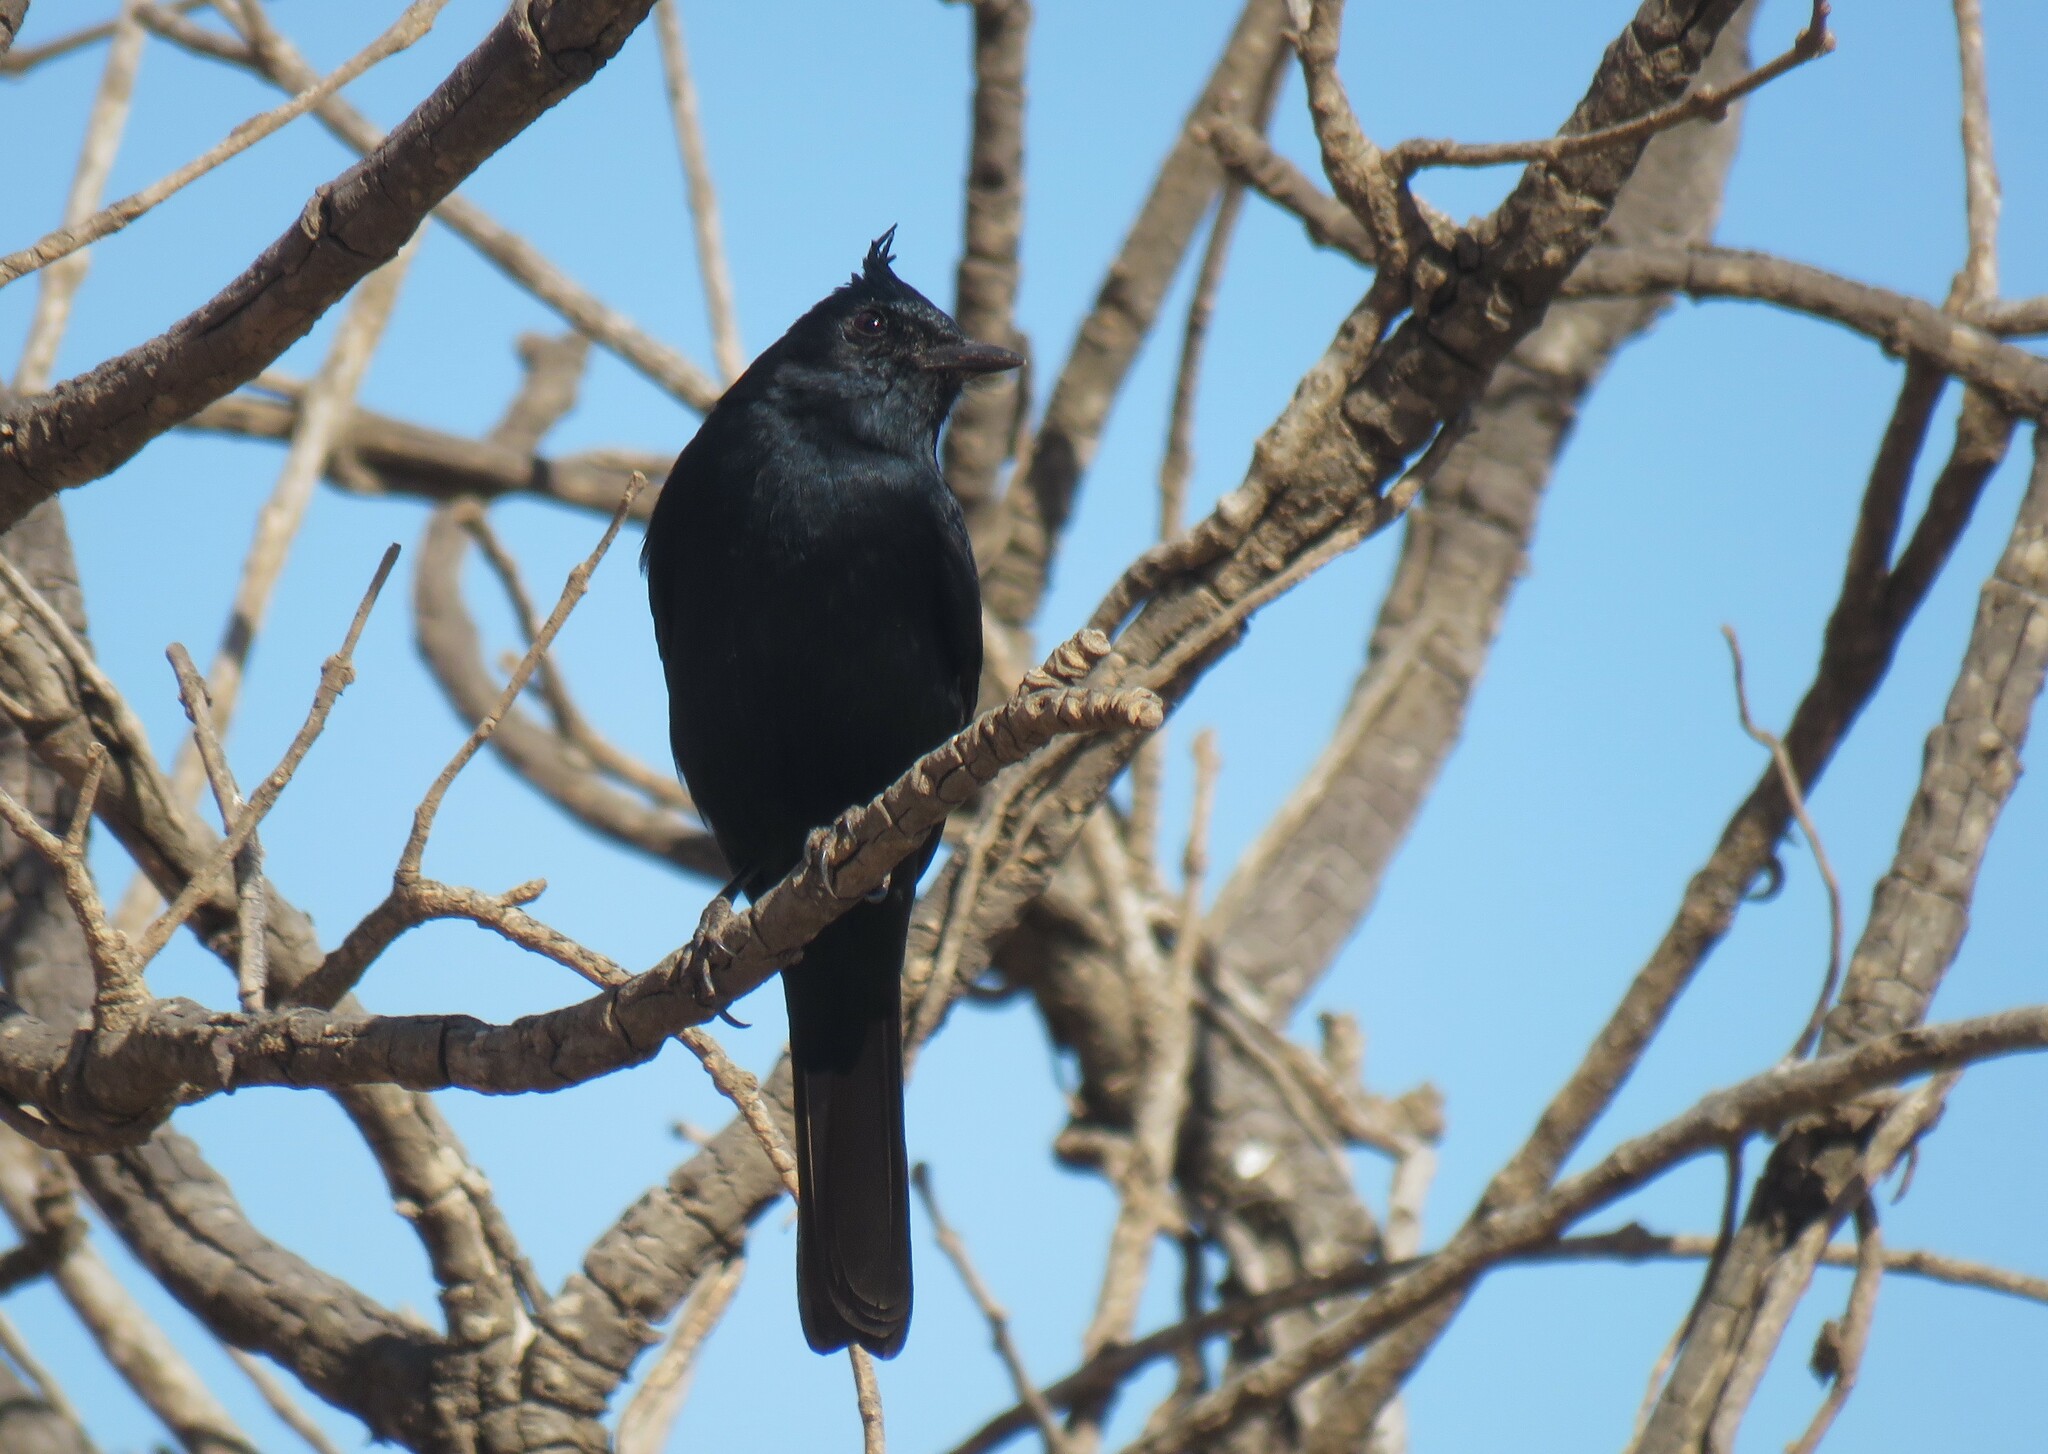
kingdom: Animalia
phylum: Chordata
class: Aves
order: Passeriformes
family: Tyrannidae
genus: Knipolegus
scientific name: Knipolegus lophotes
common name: Crested black tyrant
